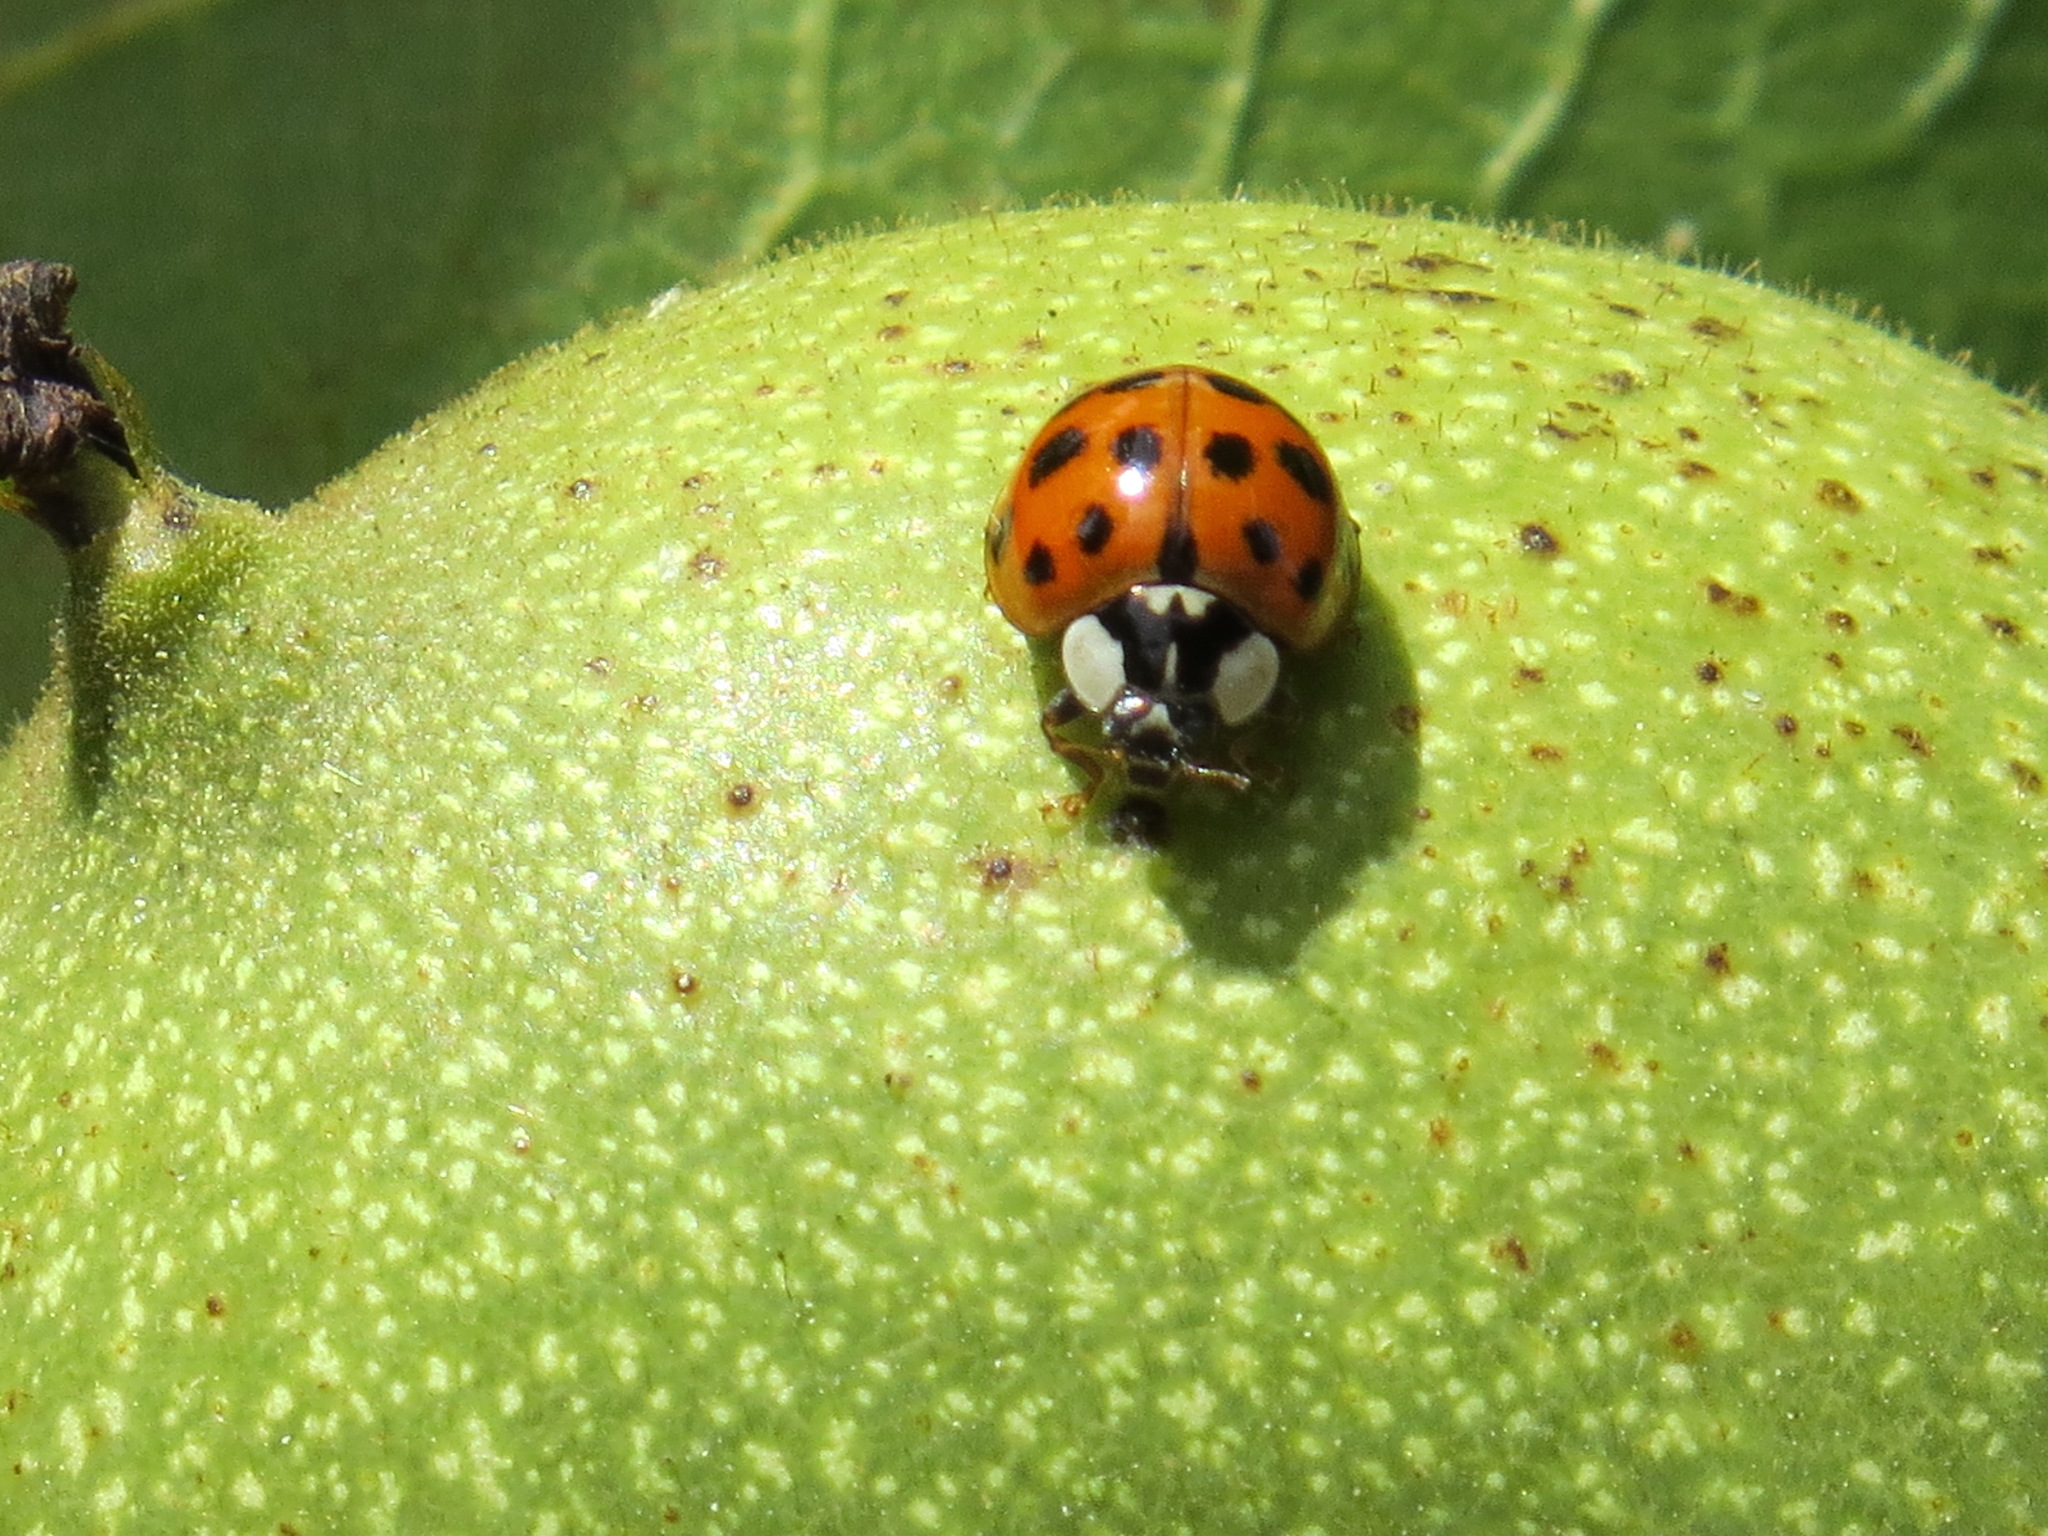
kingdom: Animalia
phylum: Arthropoda
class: Insecta
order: Coleoptera
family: Coccinellidae
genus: Harmonia
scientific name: Harmonia axyridis
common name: Harlequin ladybird
